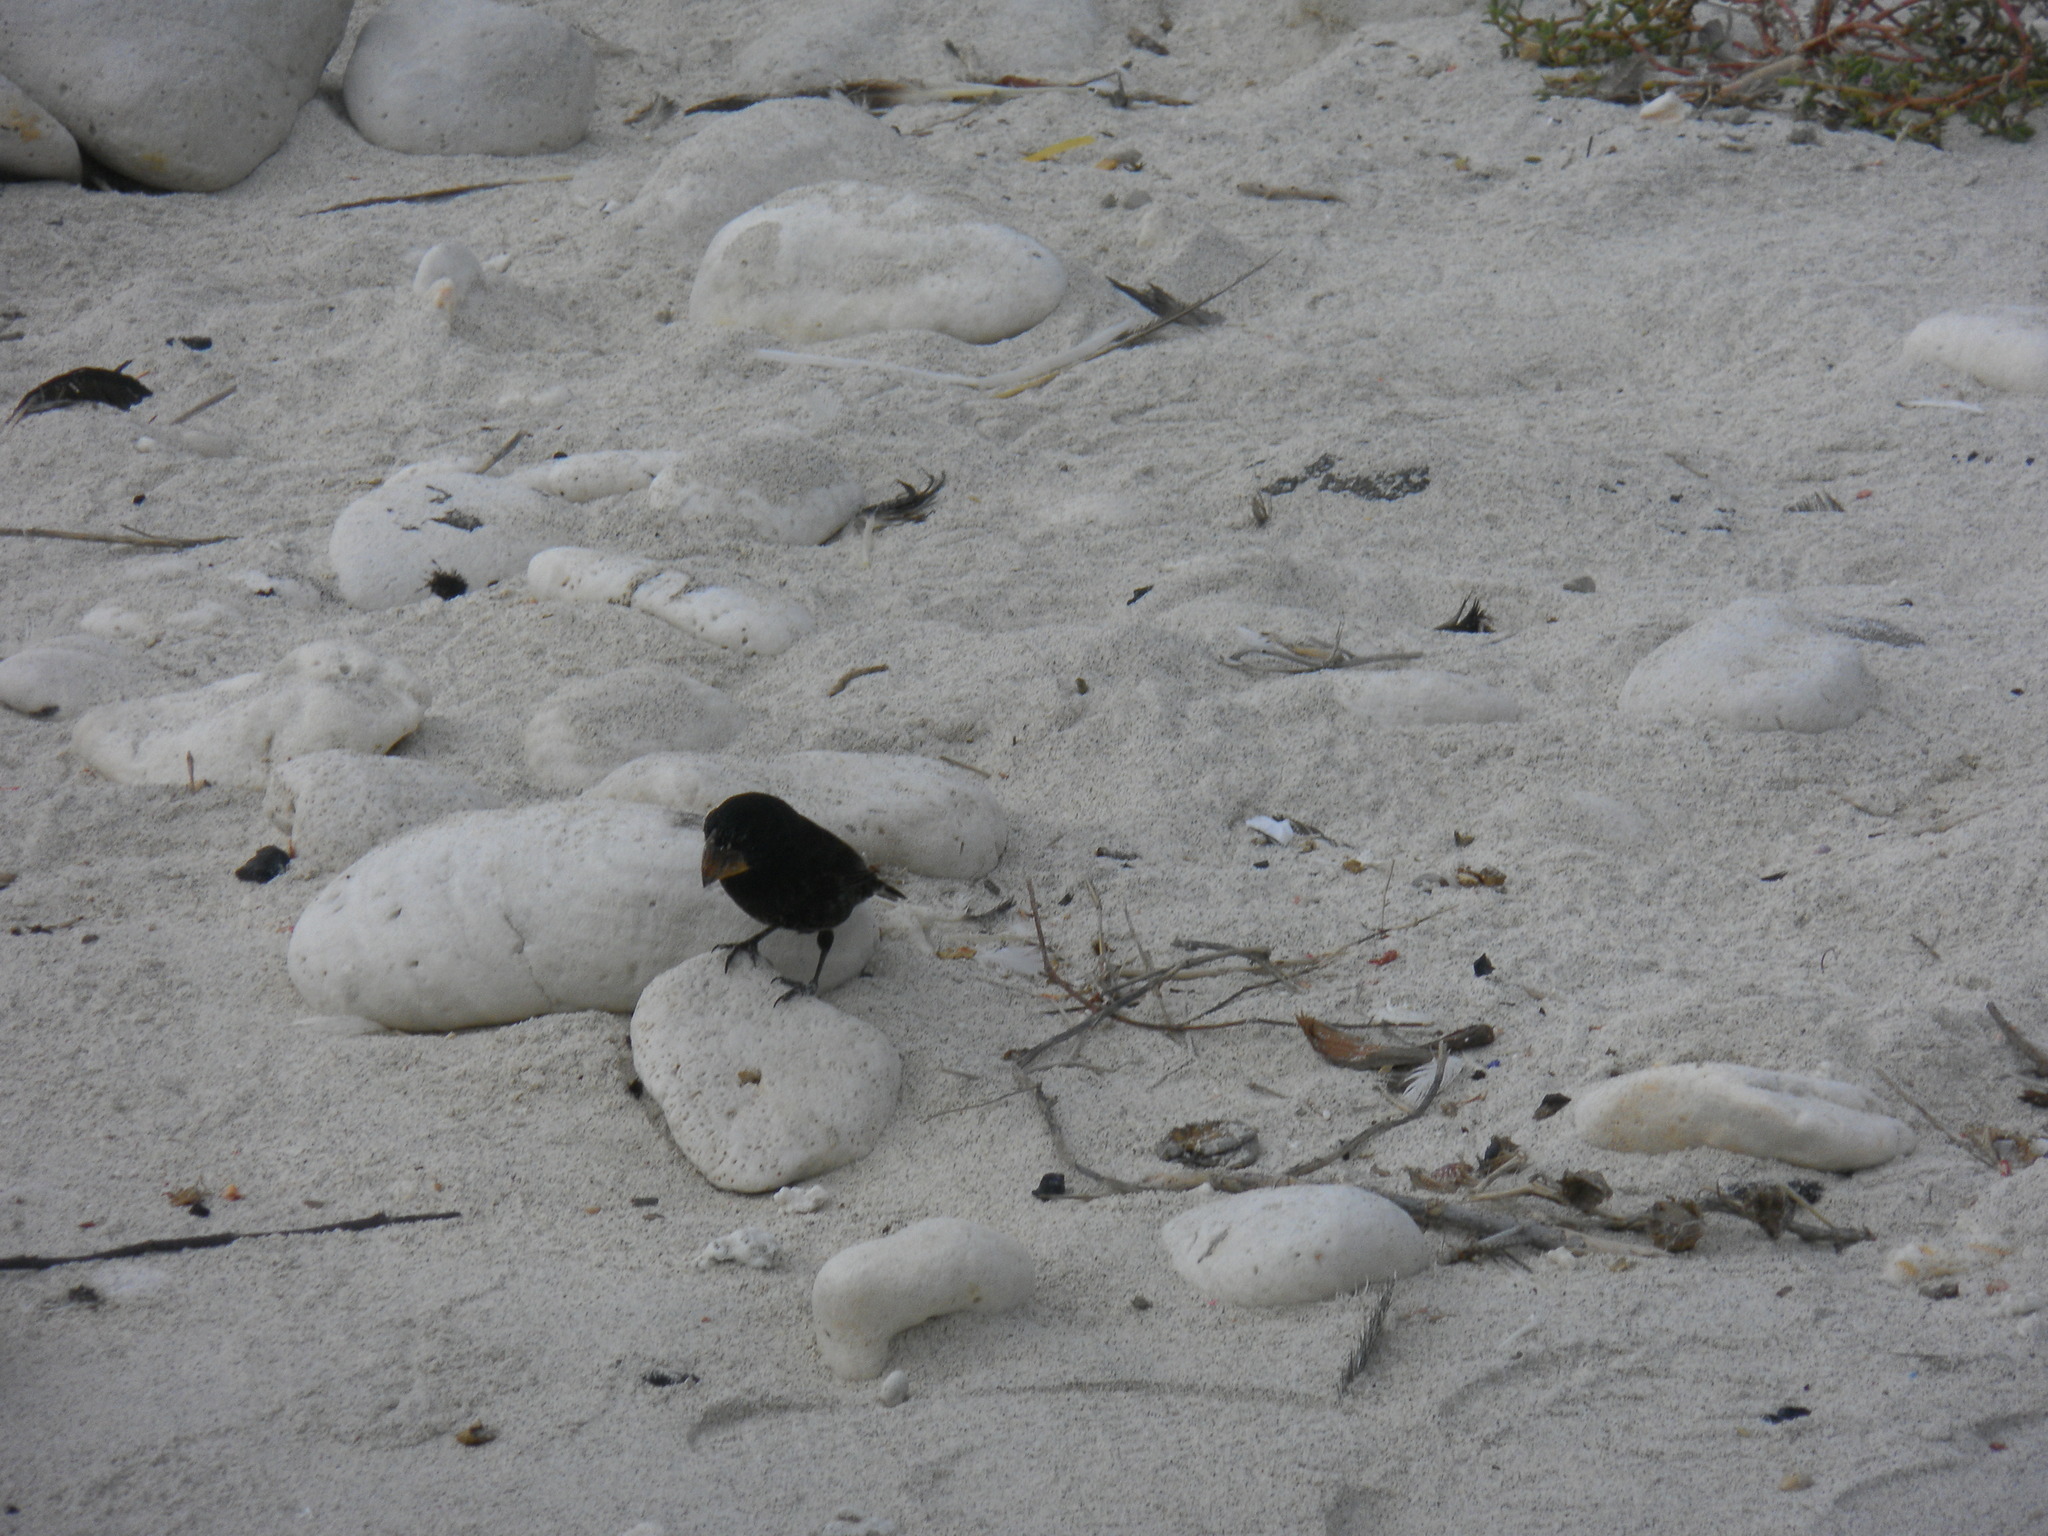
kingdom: Animalia
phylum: Chordata
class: Aves
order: Passeriformes
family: Thraupidae
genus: Geospiza
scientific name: Geospiza magnirostris
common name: Large ground-finch
